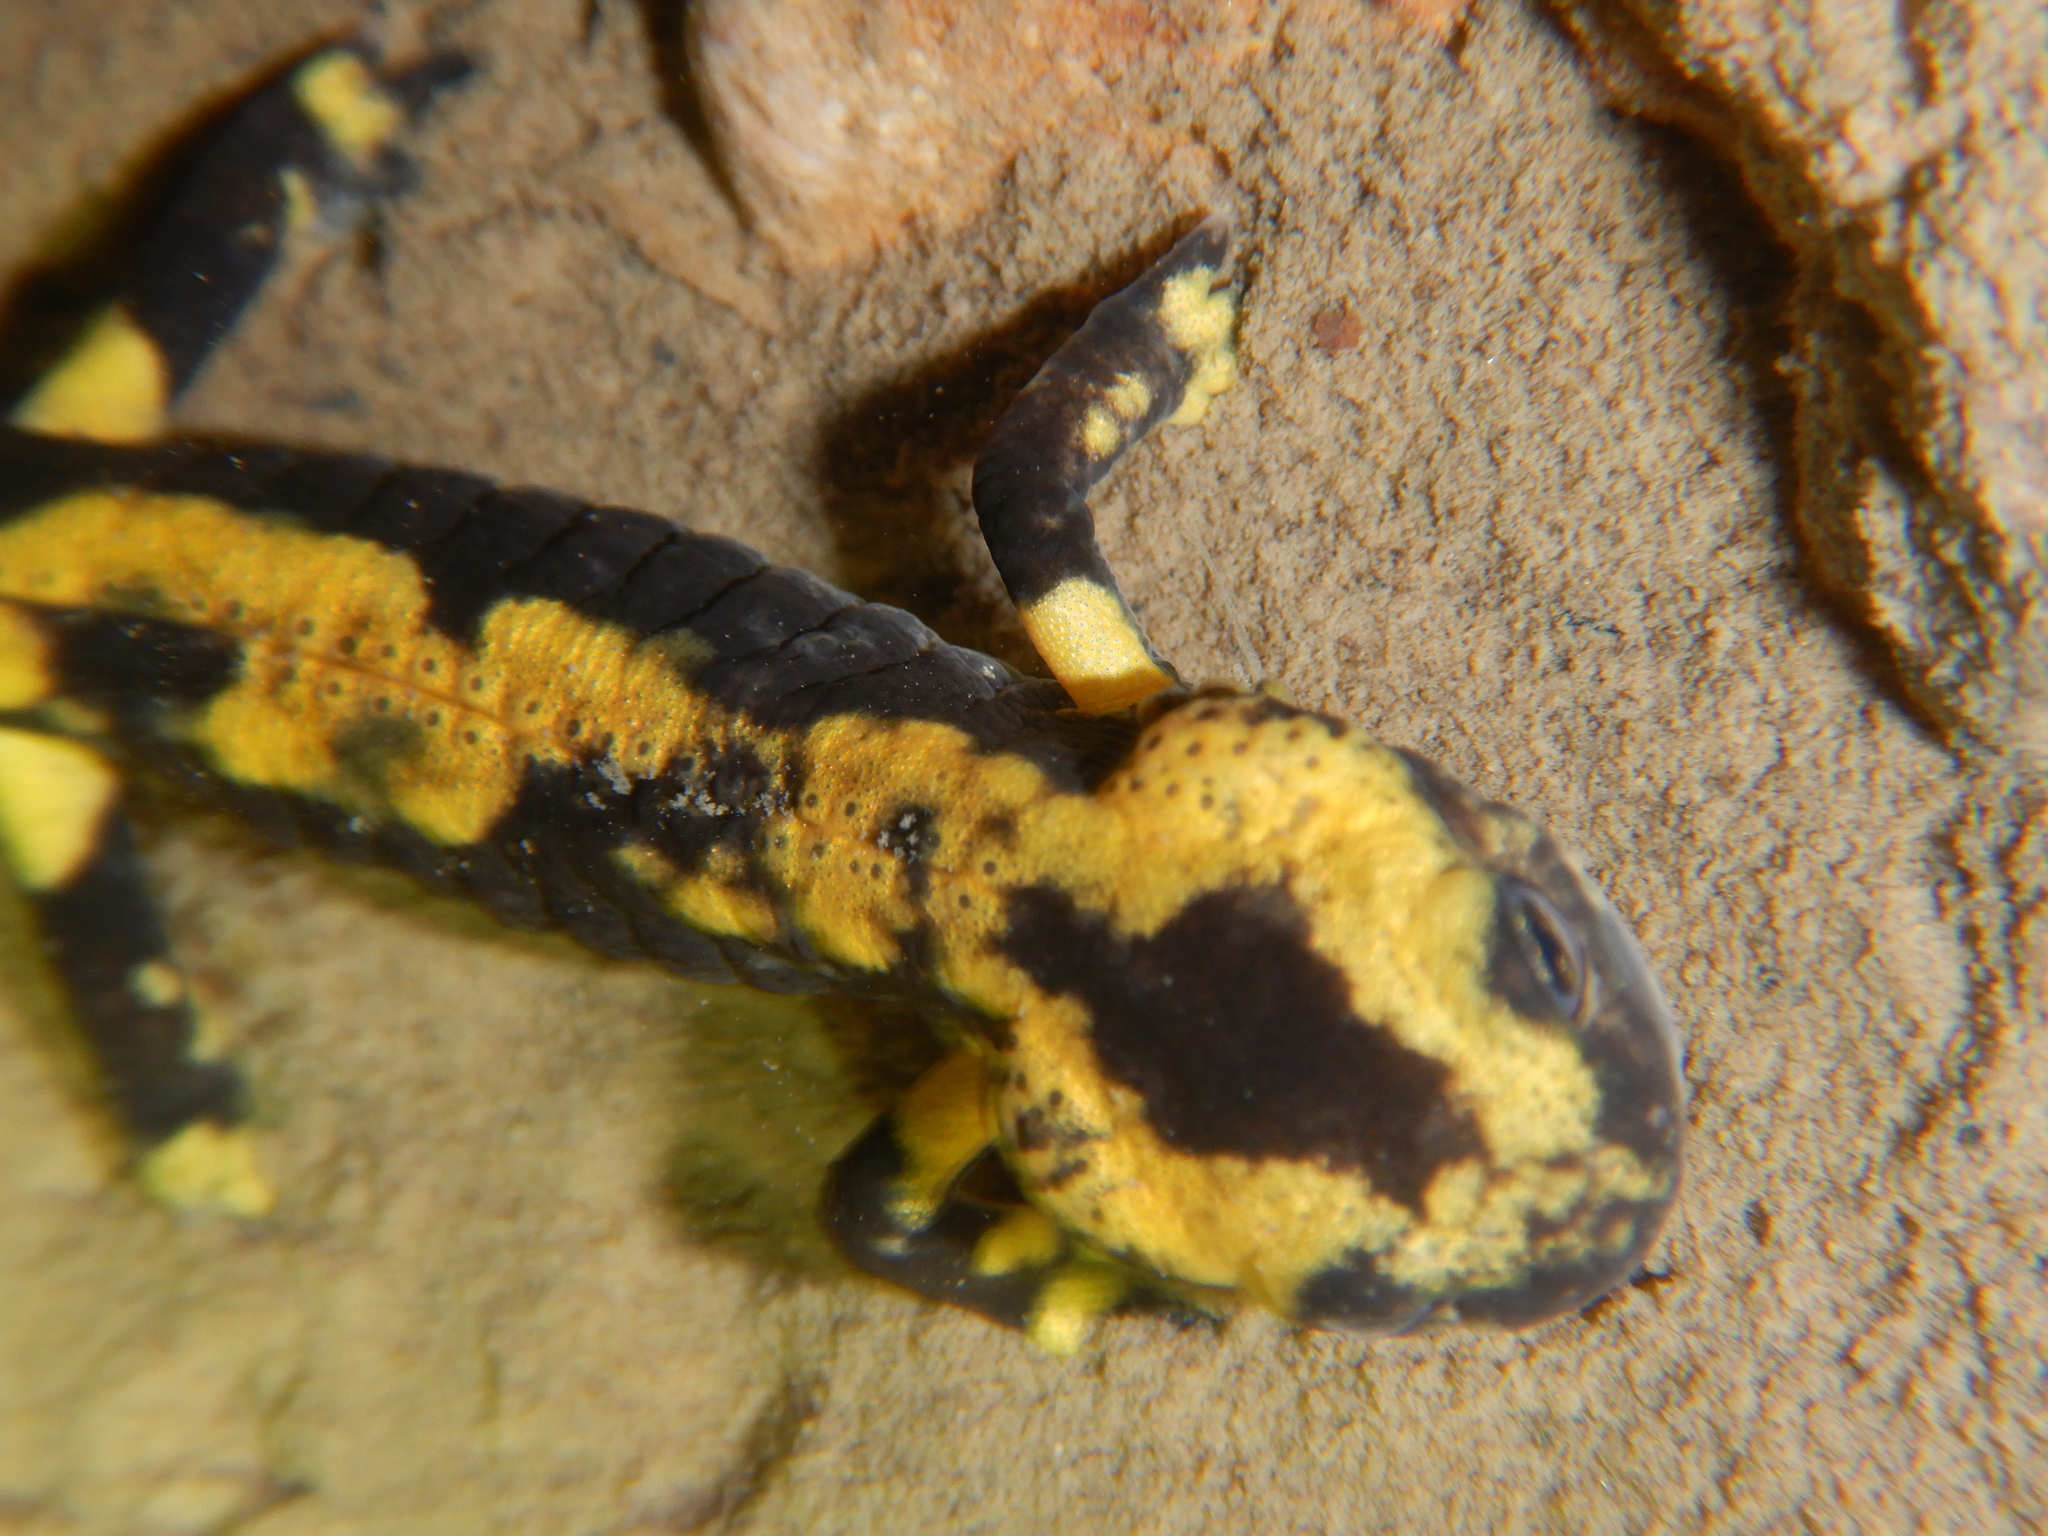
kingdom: Animalia
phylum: Chordata
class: Amphibia
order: Caudata
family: Salamandridae
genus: Salamandra
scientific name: Salamandra salamandra
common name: Fire salamander
